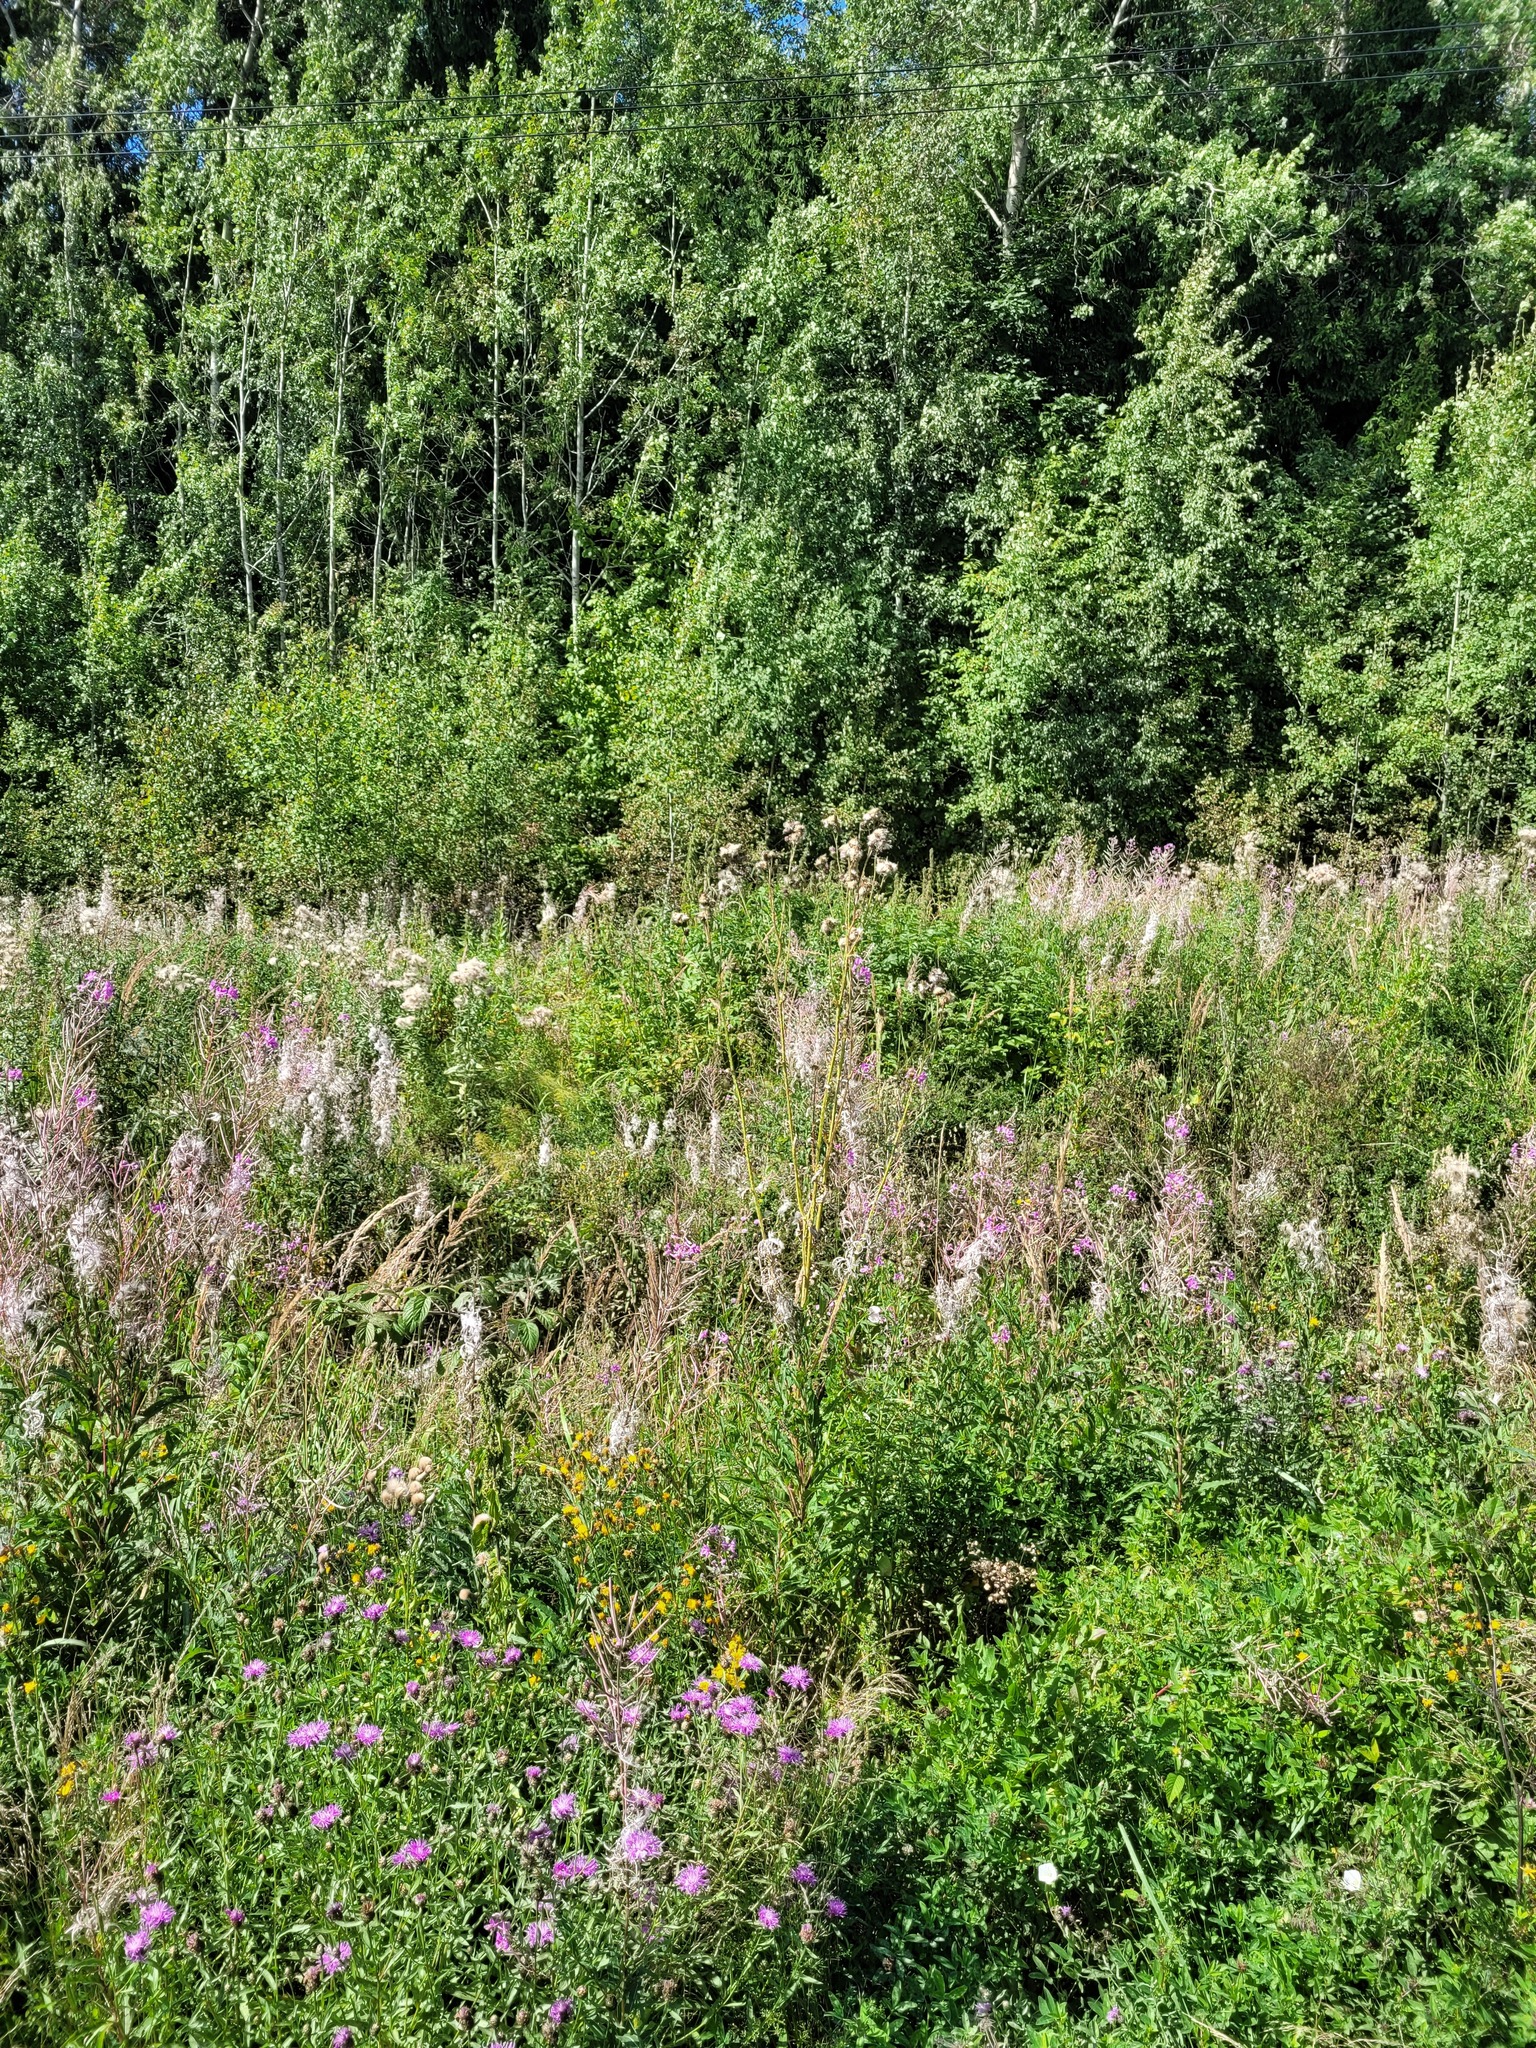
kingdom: Plantae
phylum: Tracheophyta
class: Magnoliopsida
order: Myrtales
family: Onagraceae
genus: Chamaenerion
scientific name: Chamaenerion angustifolium
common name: Fireweed
